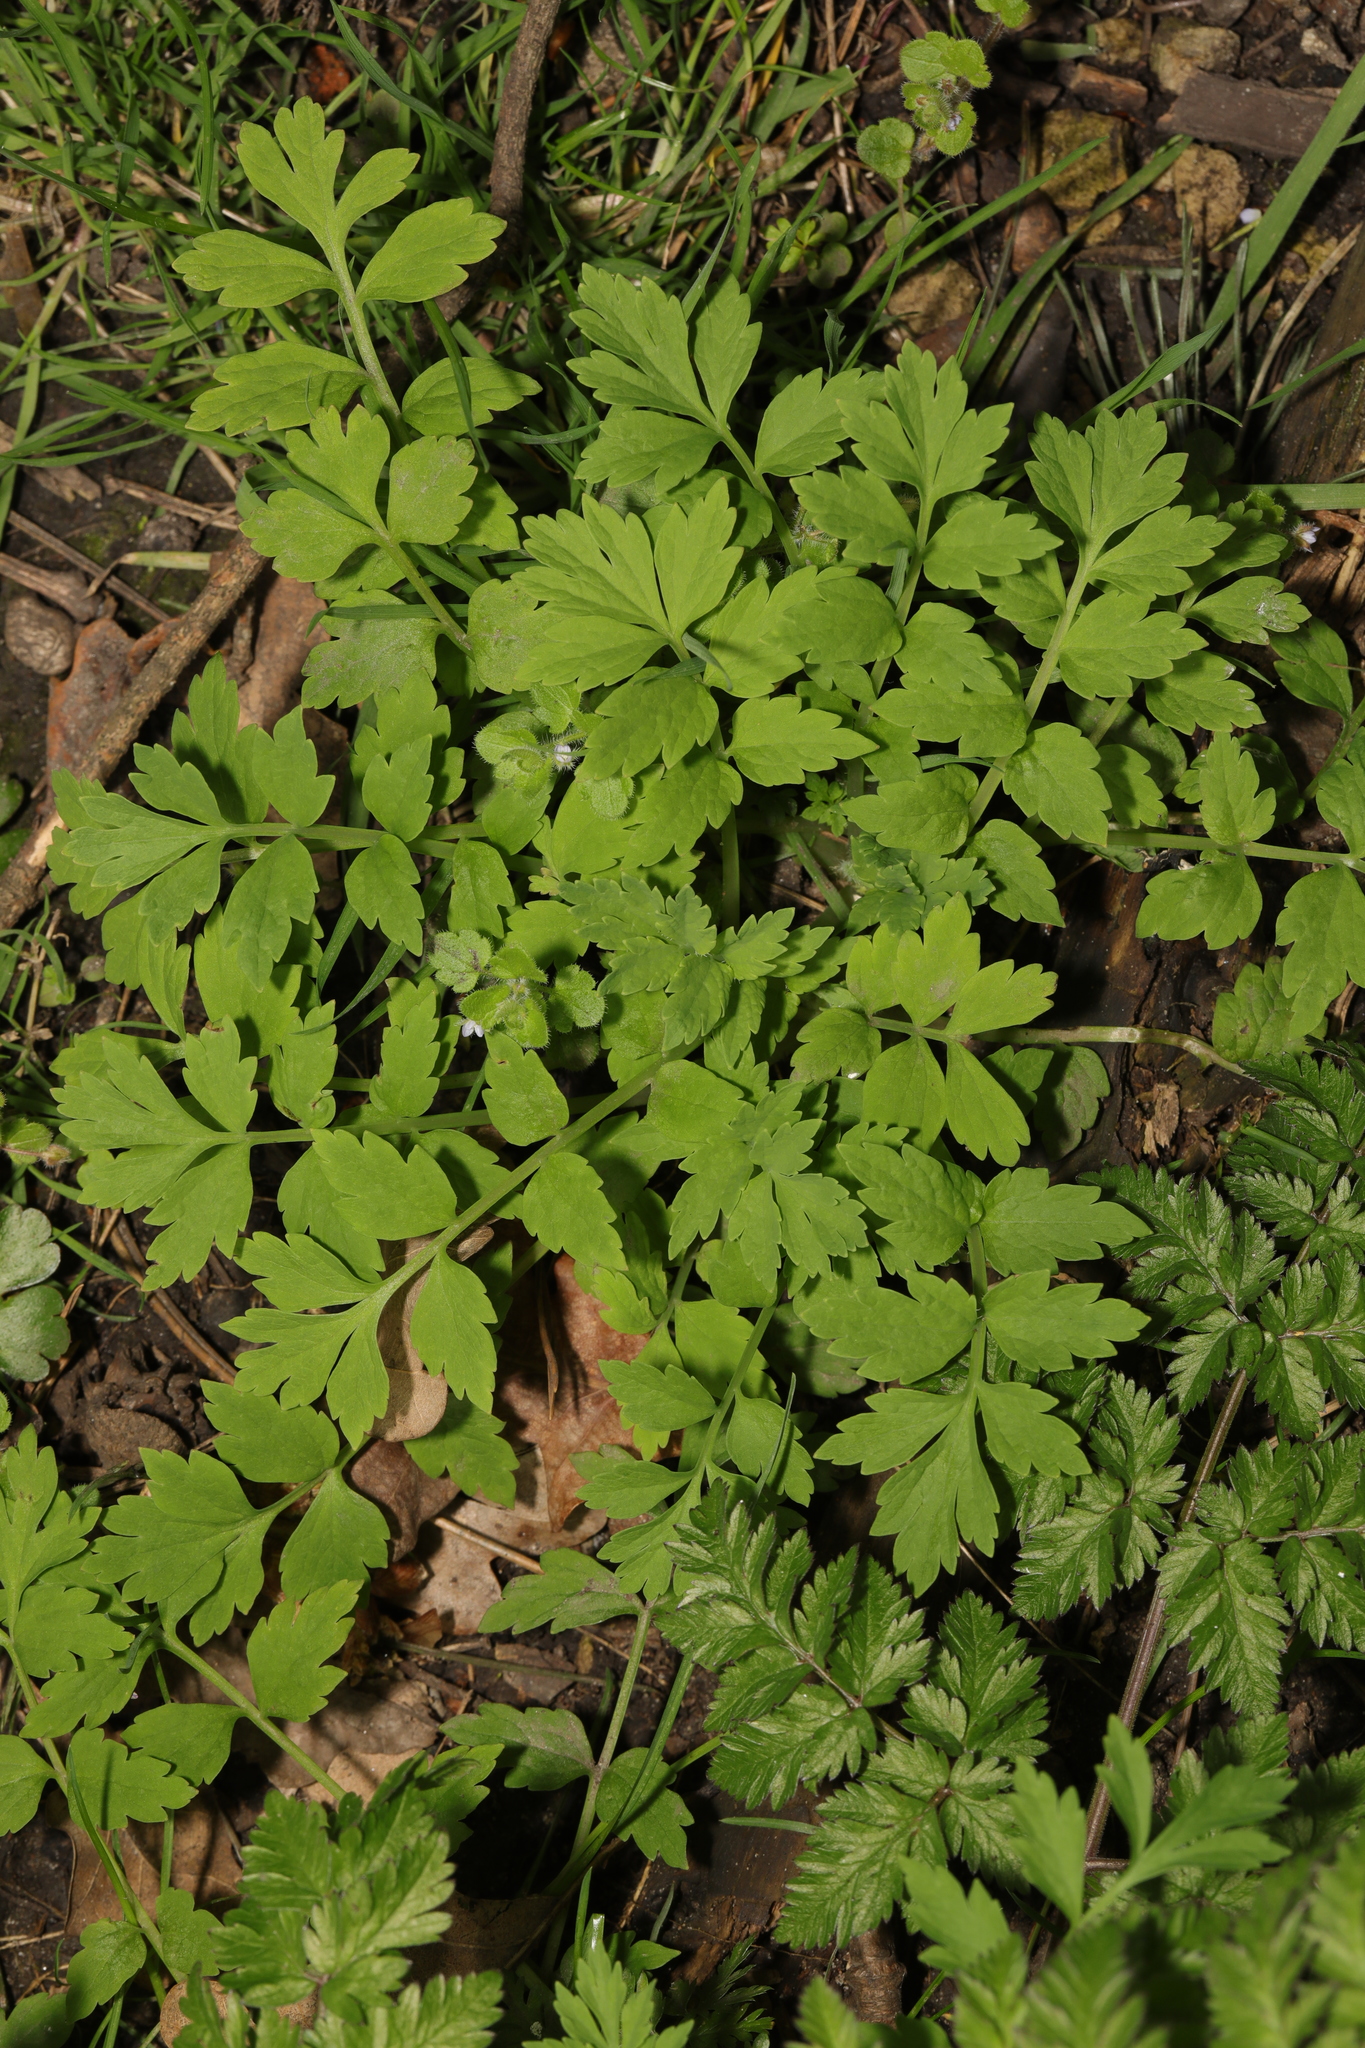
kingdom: Plantae
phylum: Tracheophyta
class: Magnoliopsida
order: Ranunculales
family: Papaveraceae
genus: Papaver
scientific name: Papaver cambricum
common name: Poppy
